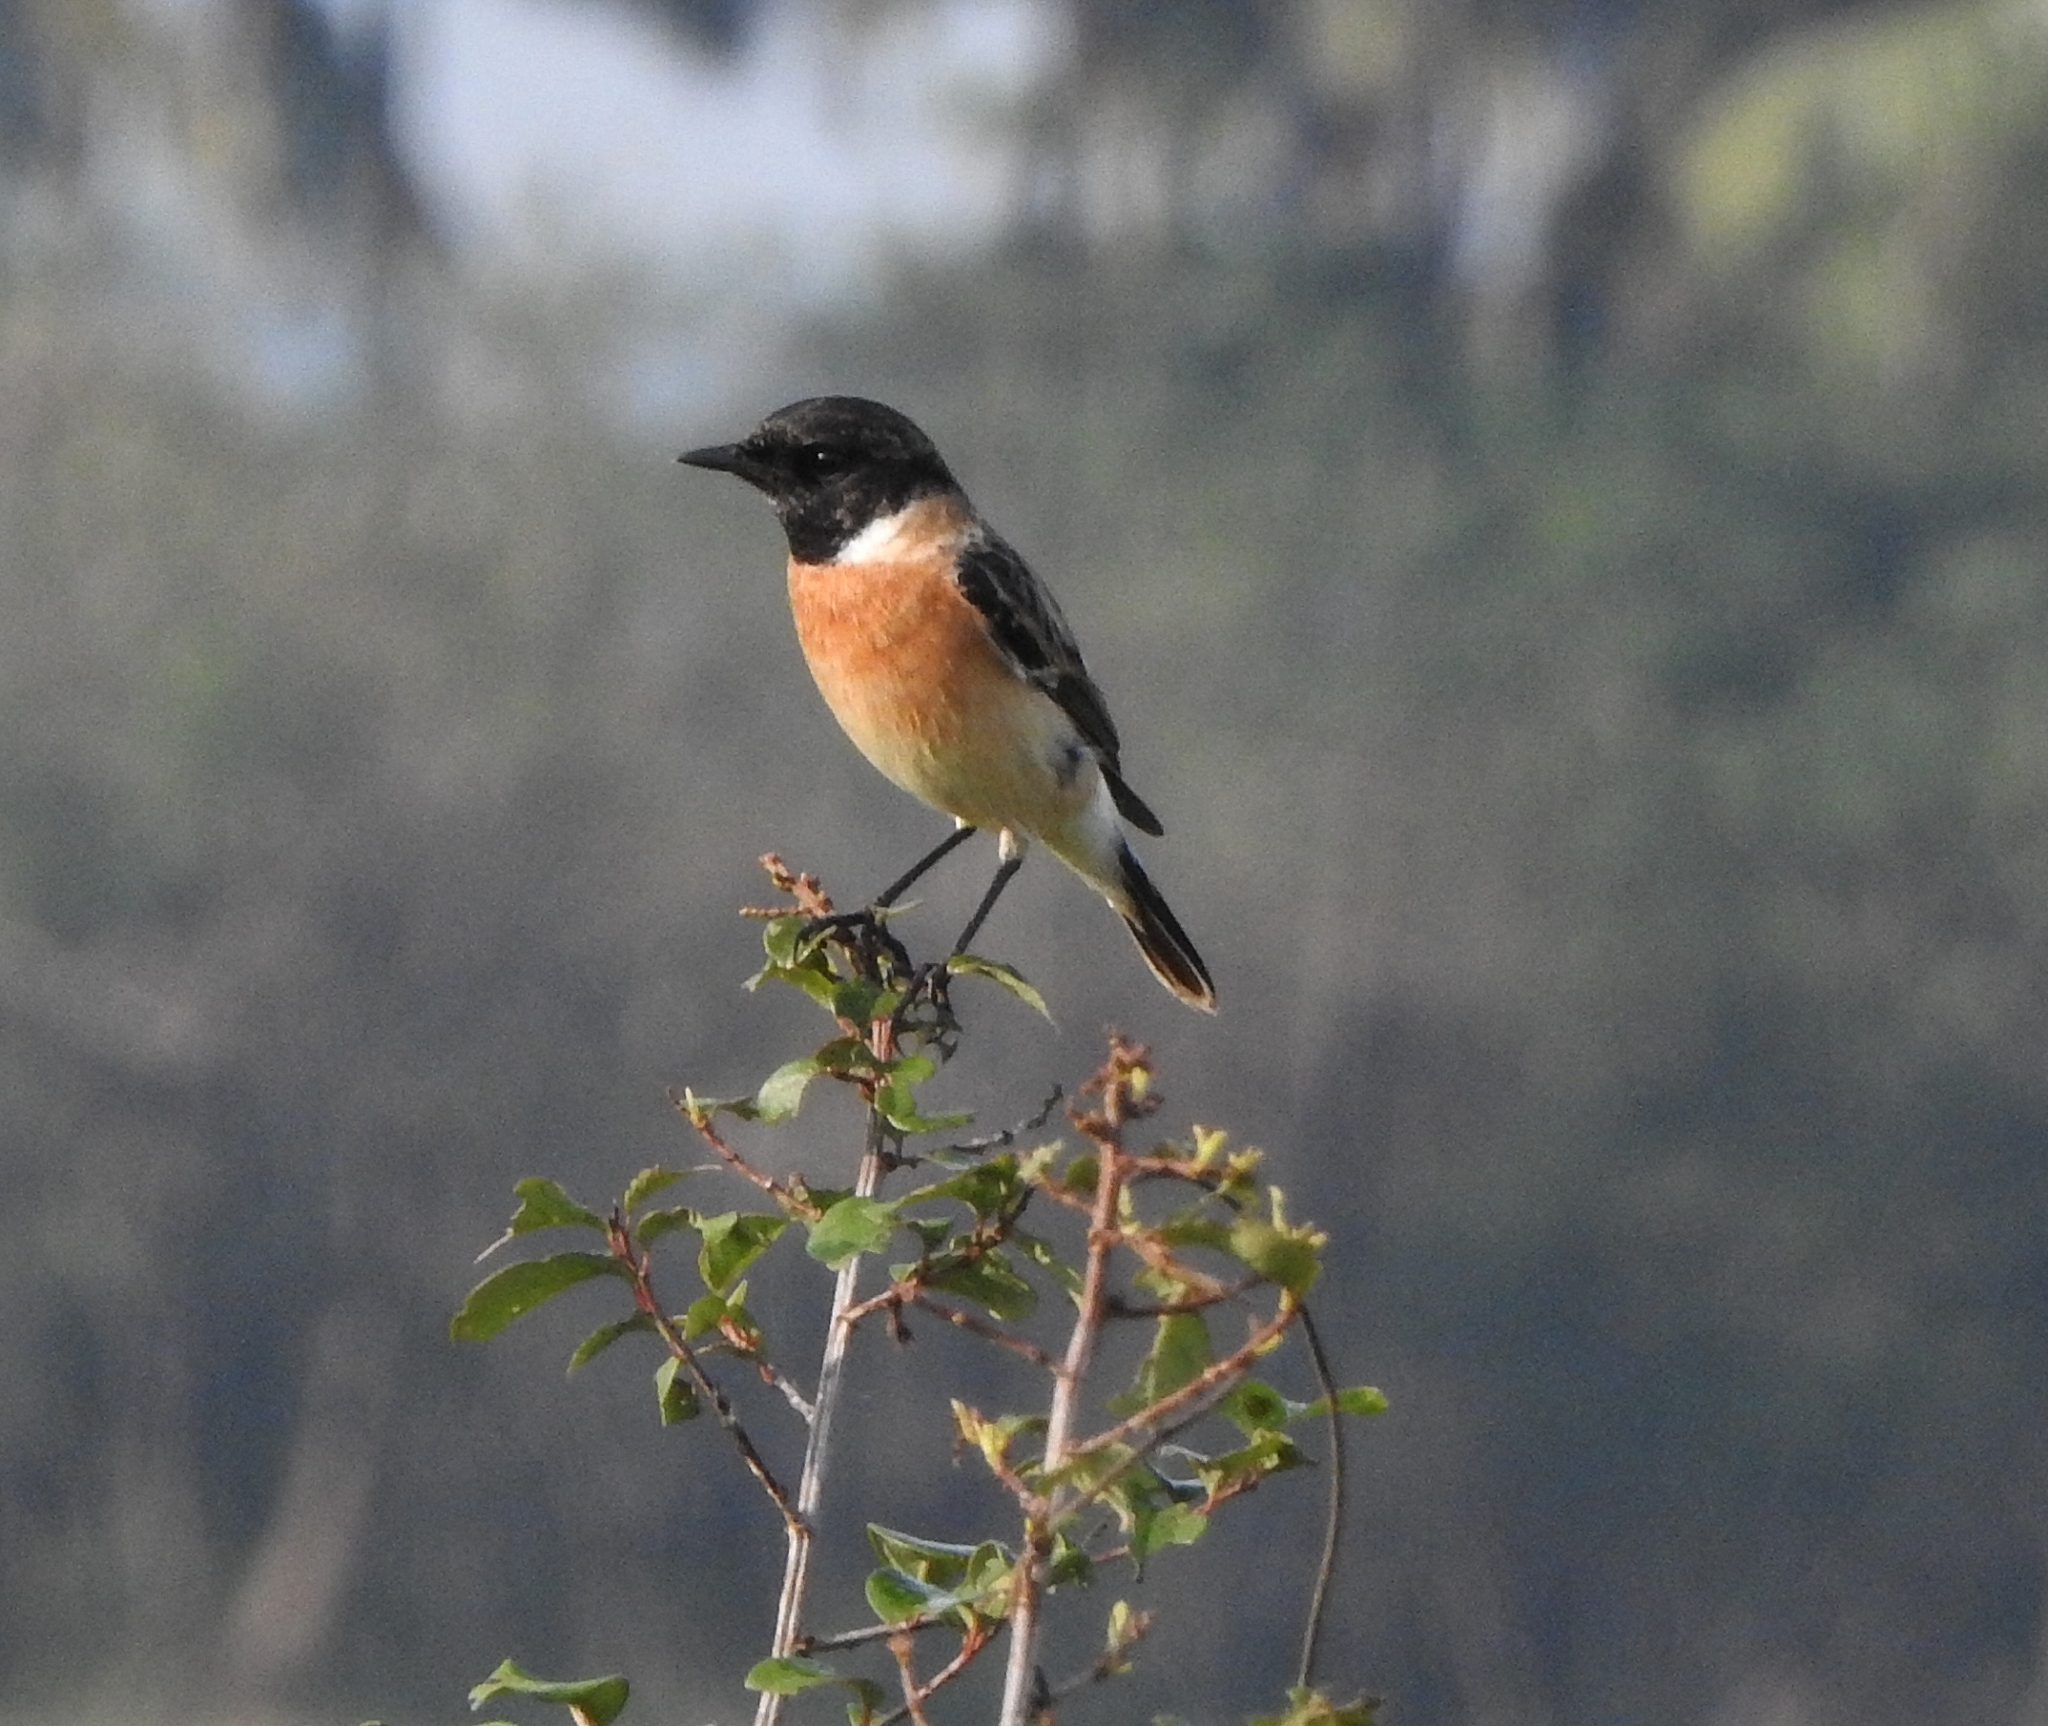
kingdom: Animalia
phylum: Chordata
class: Aves
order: Passeriformes
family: Muscicapidae
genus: Saxicola
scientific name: Saxicola maurus
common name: Siberian stonechat
